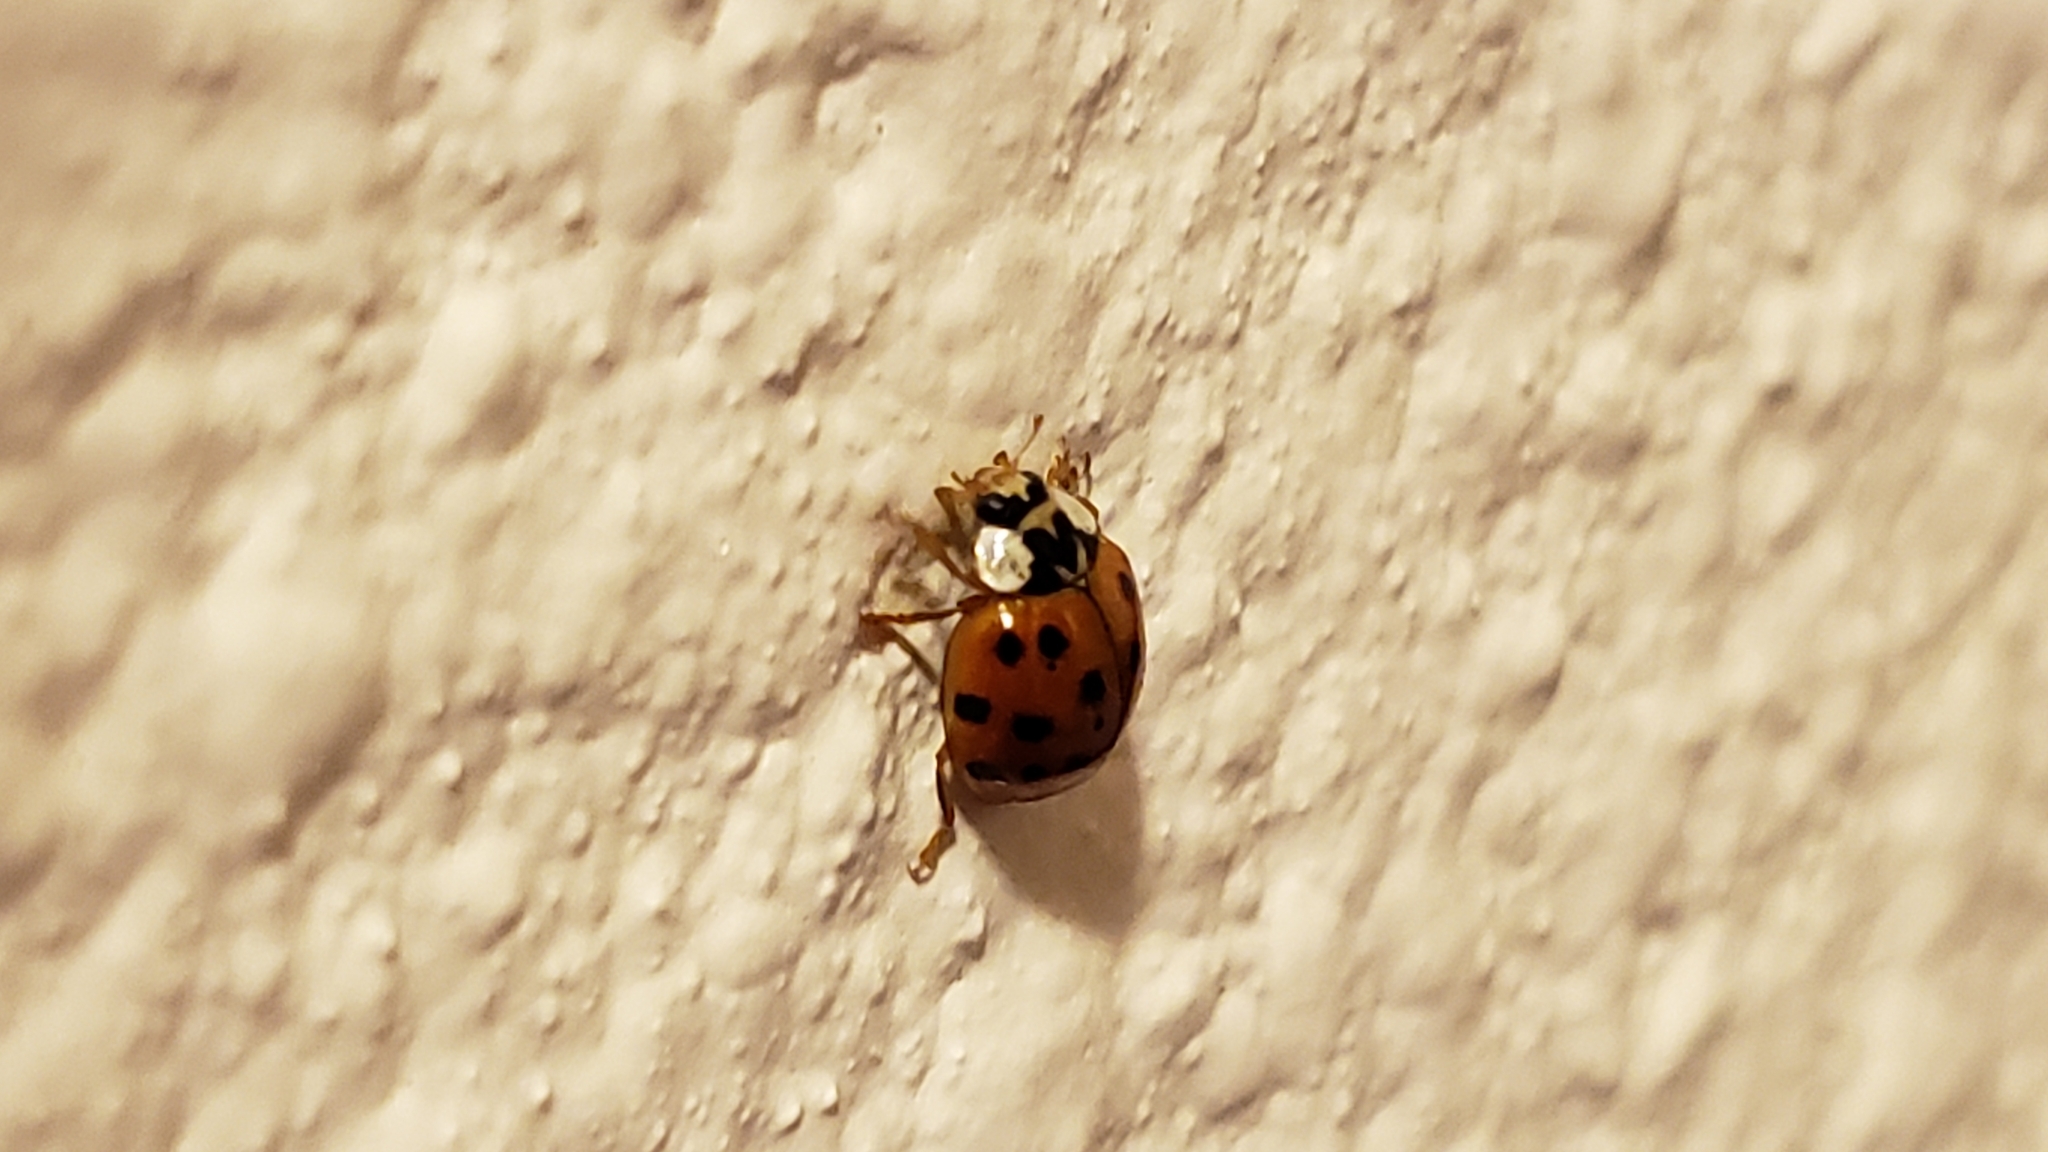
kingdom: Animalia
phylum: Arthropoda
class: Insecta
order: Coleoptera
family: Coccinellidae
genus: Harmonia
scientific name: Harmonia axyridis
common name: Harlequin ladybird
